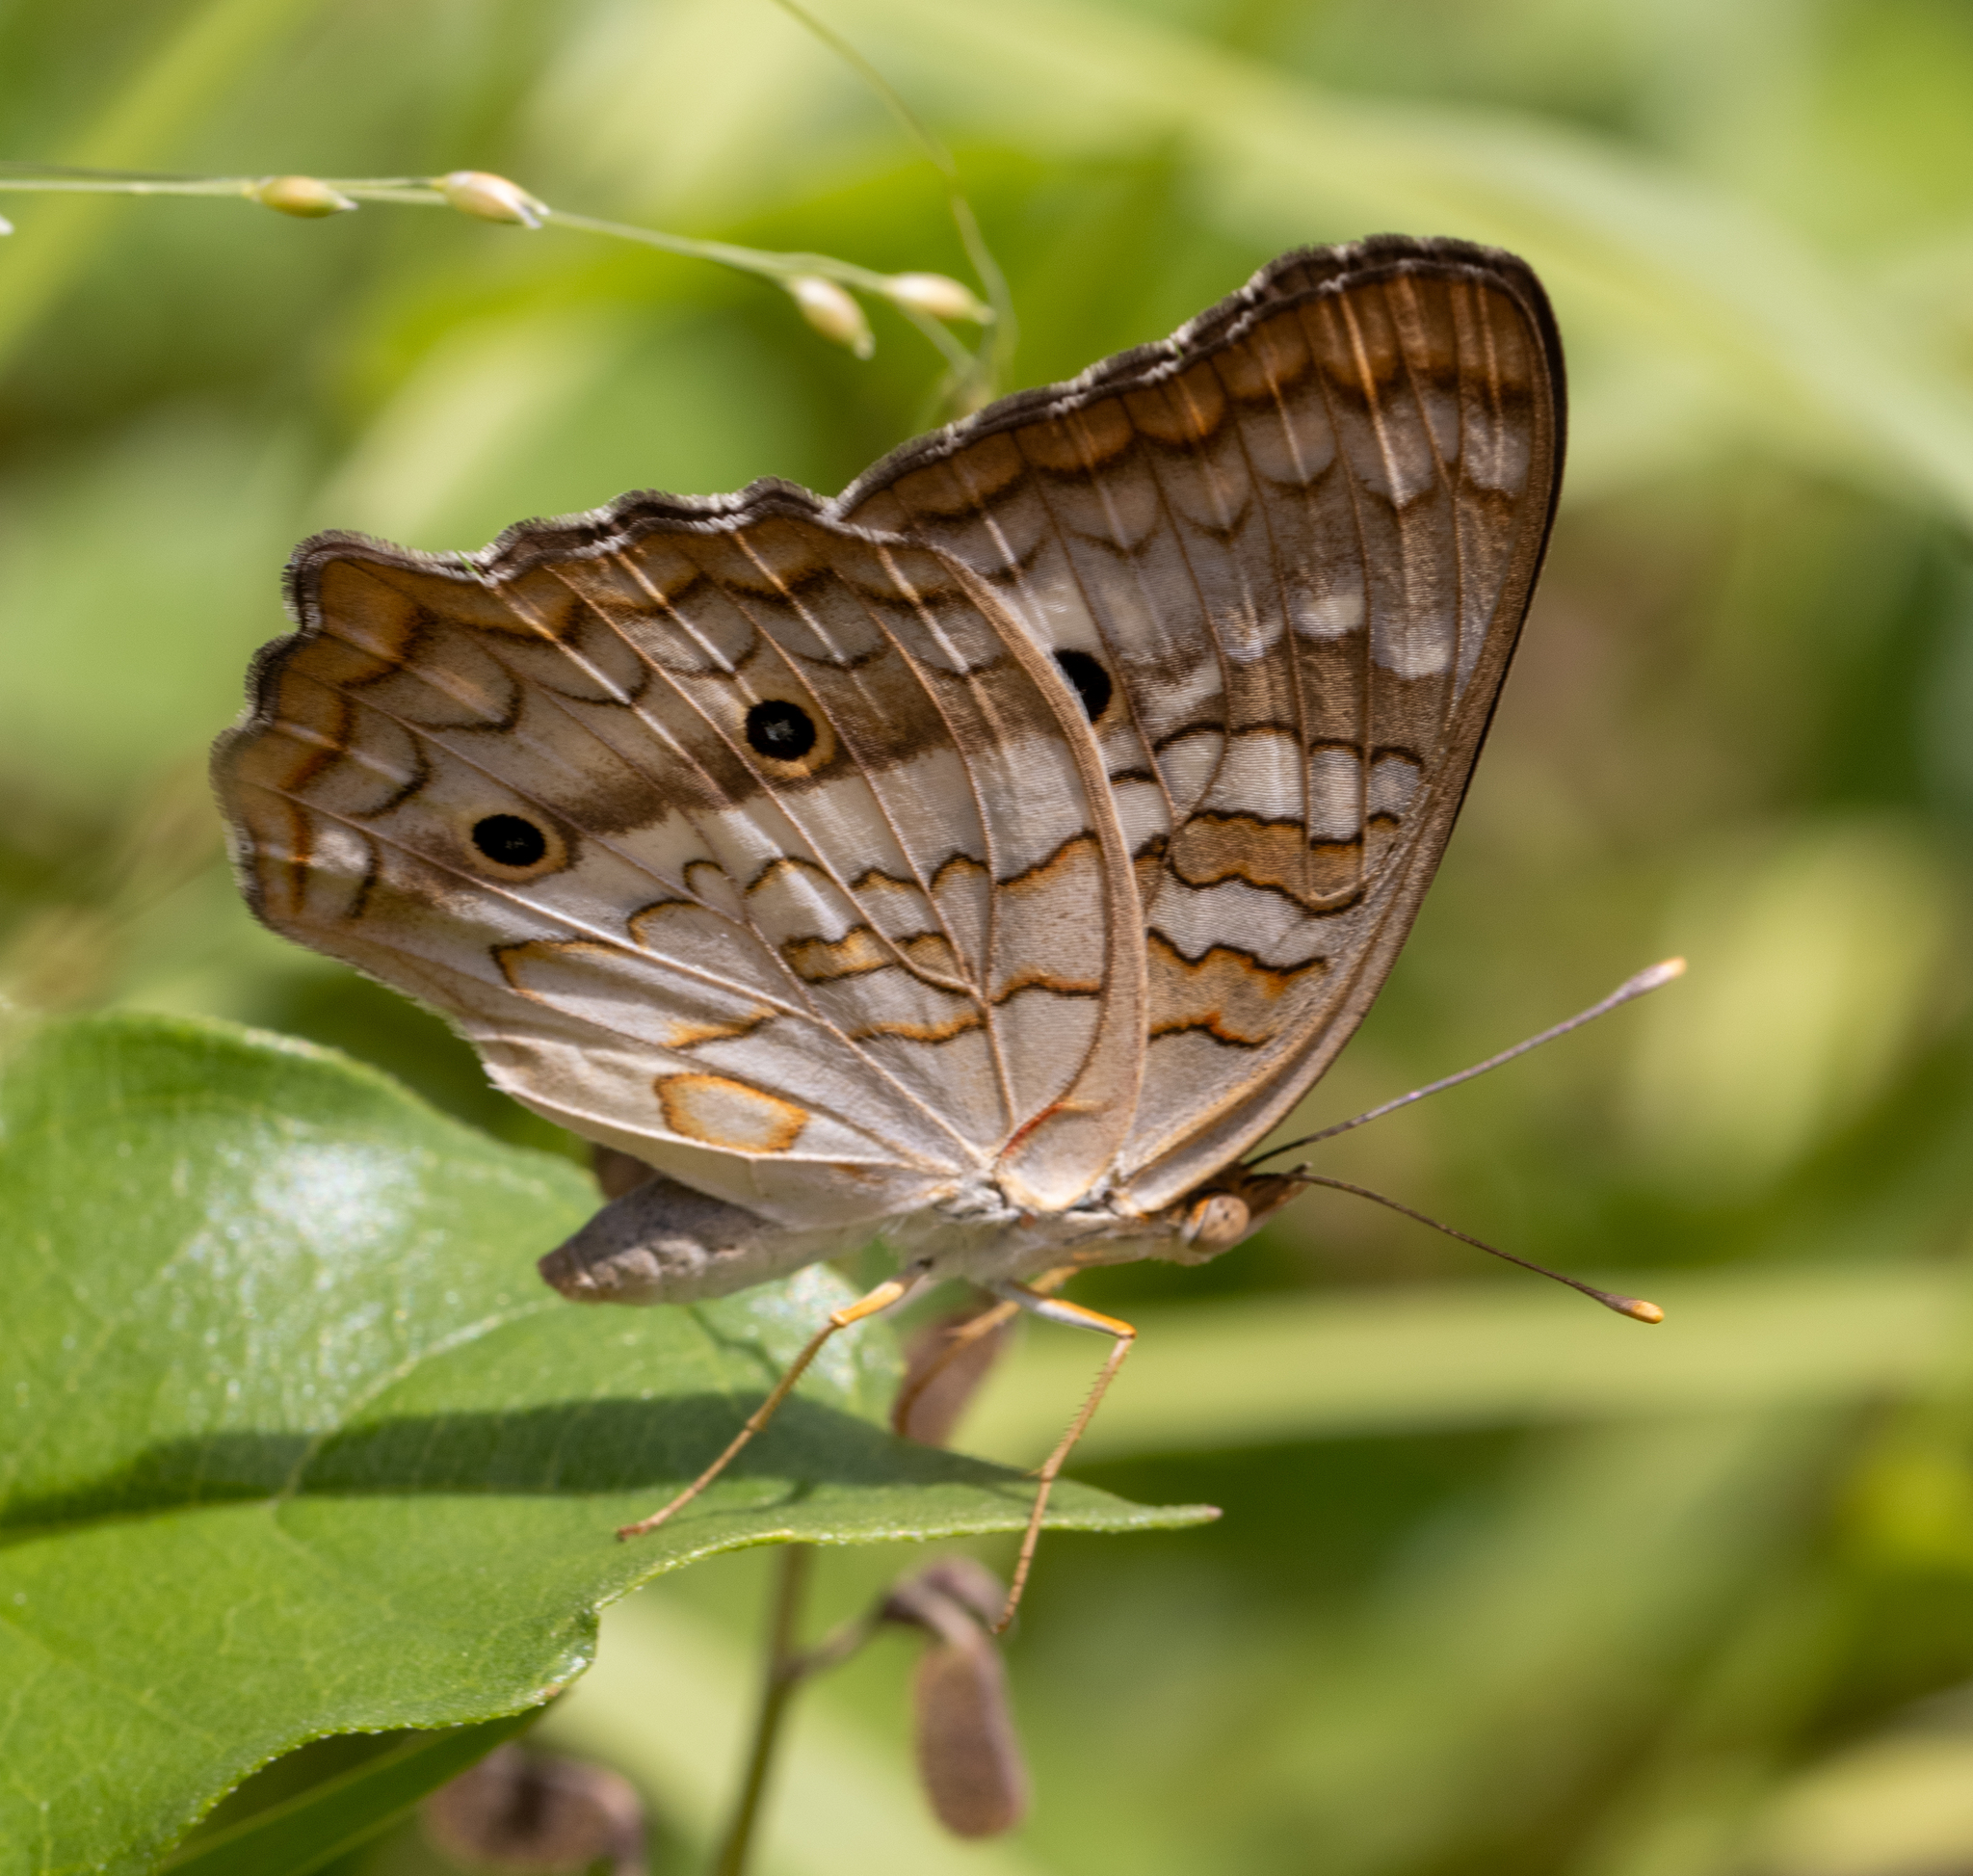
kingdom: Animalia
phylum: Arthropoda
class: Insecta
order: Lepidoptera
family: Nymphalidae
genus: Anartia
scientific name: Anartia jatrophae
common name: White peacock
